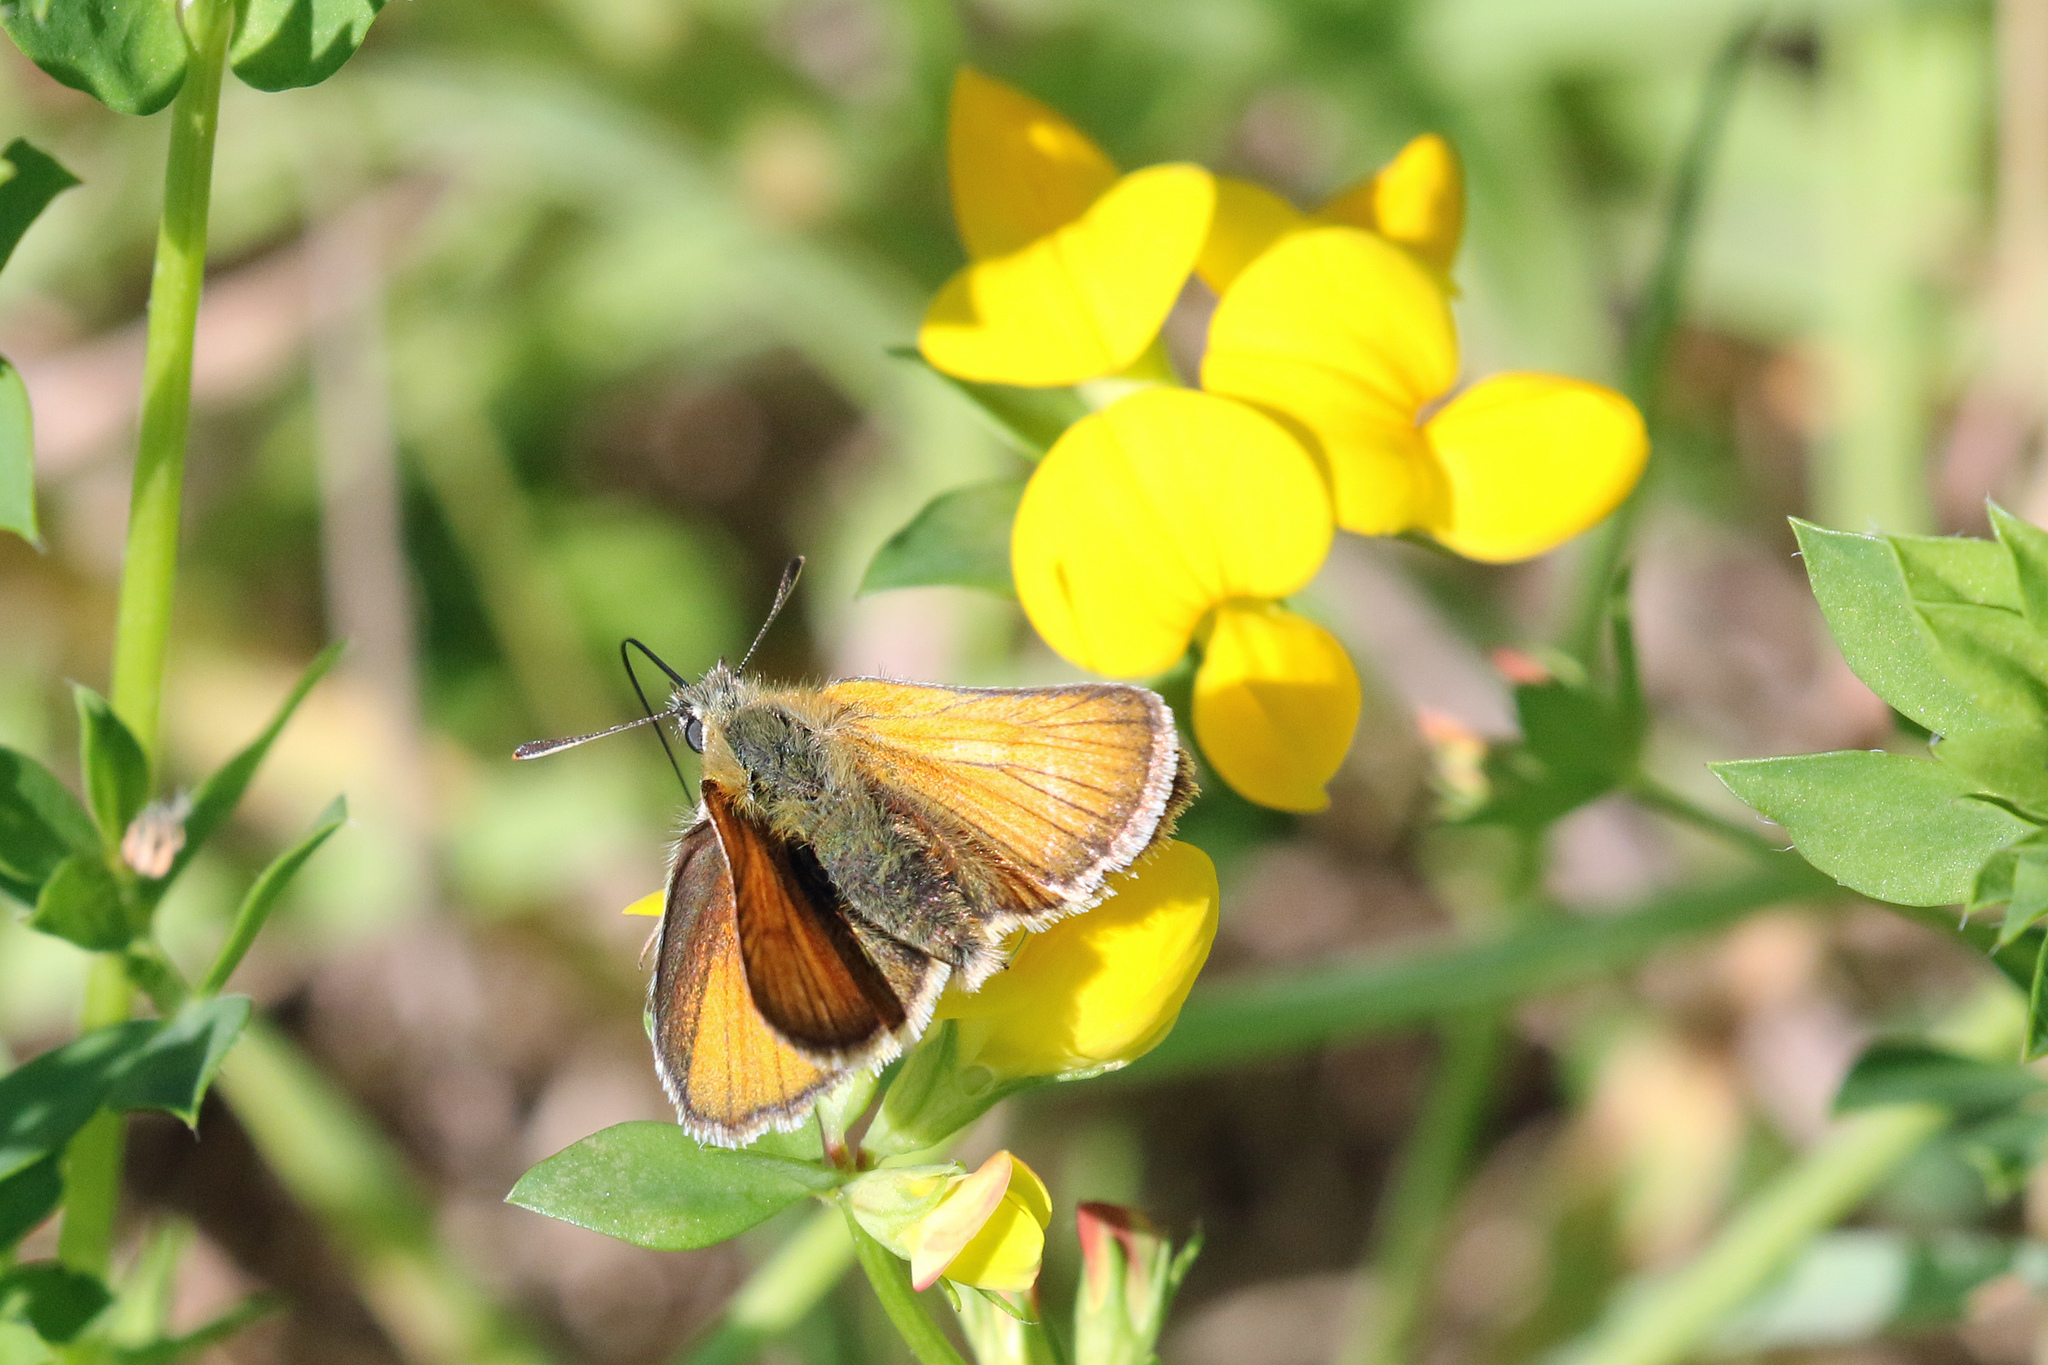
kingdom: Animalia
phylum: Arthropoda
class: Insecta
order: Lepidoptera
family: Hesperiidae
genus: Thymelicus
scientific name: Thymelicus sylvestris
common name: Small skipper
